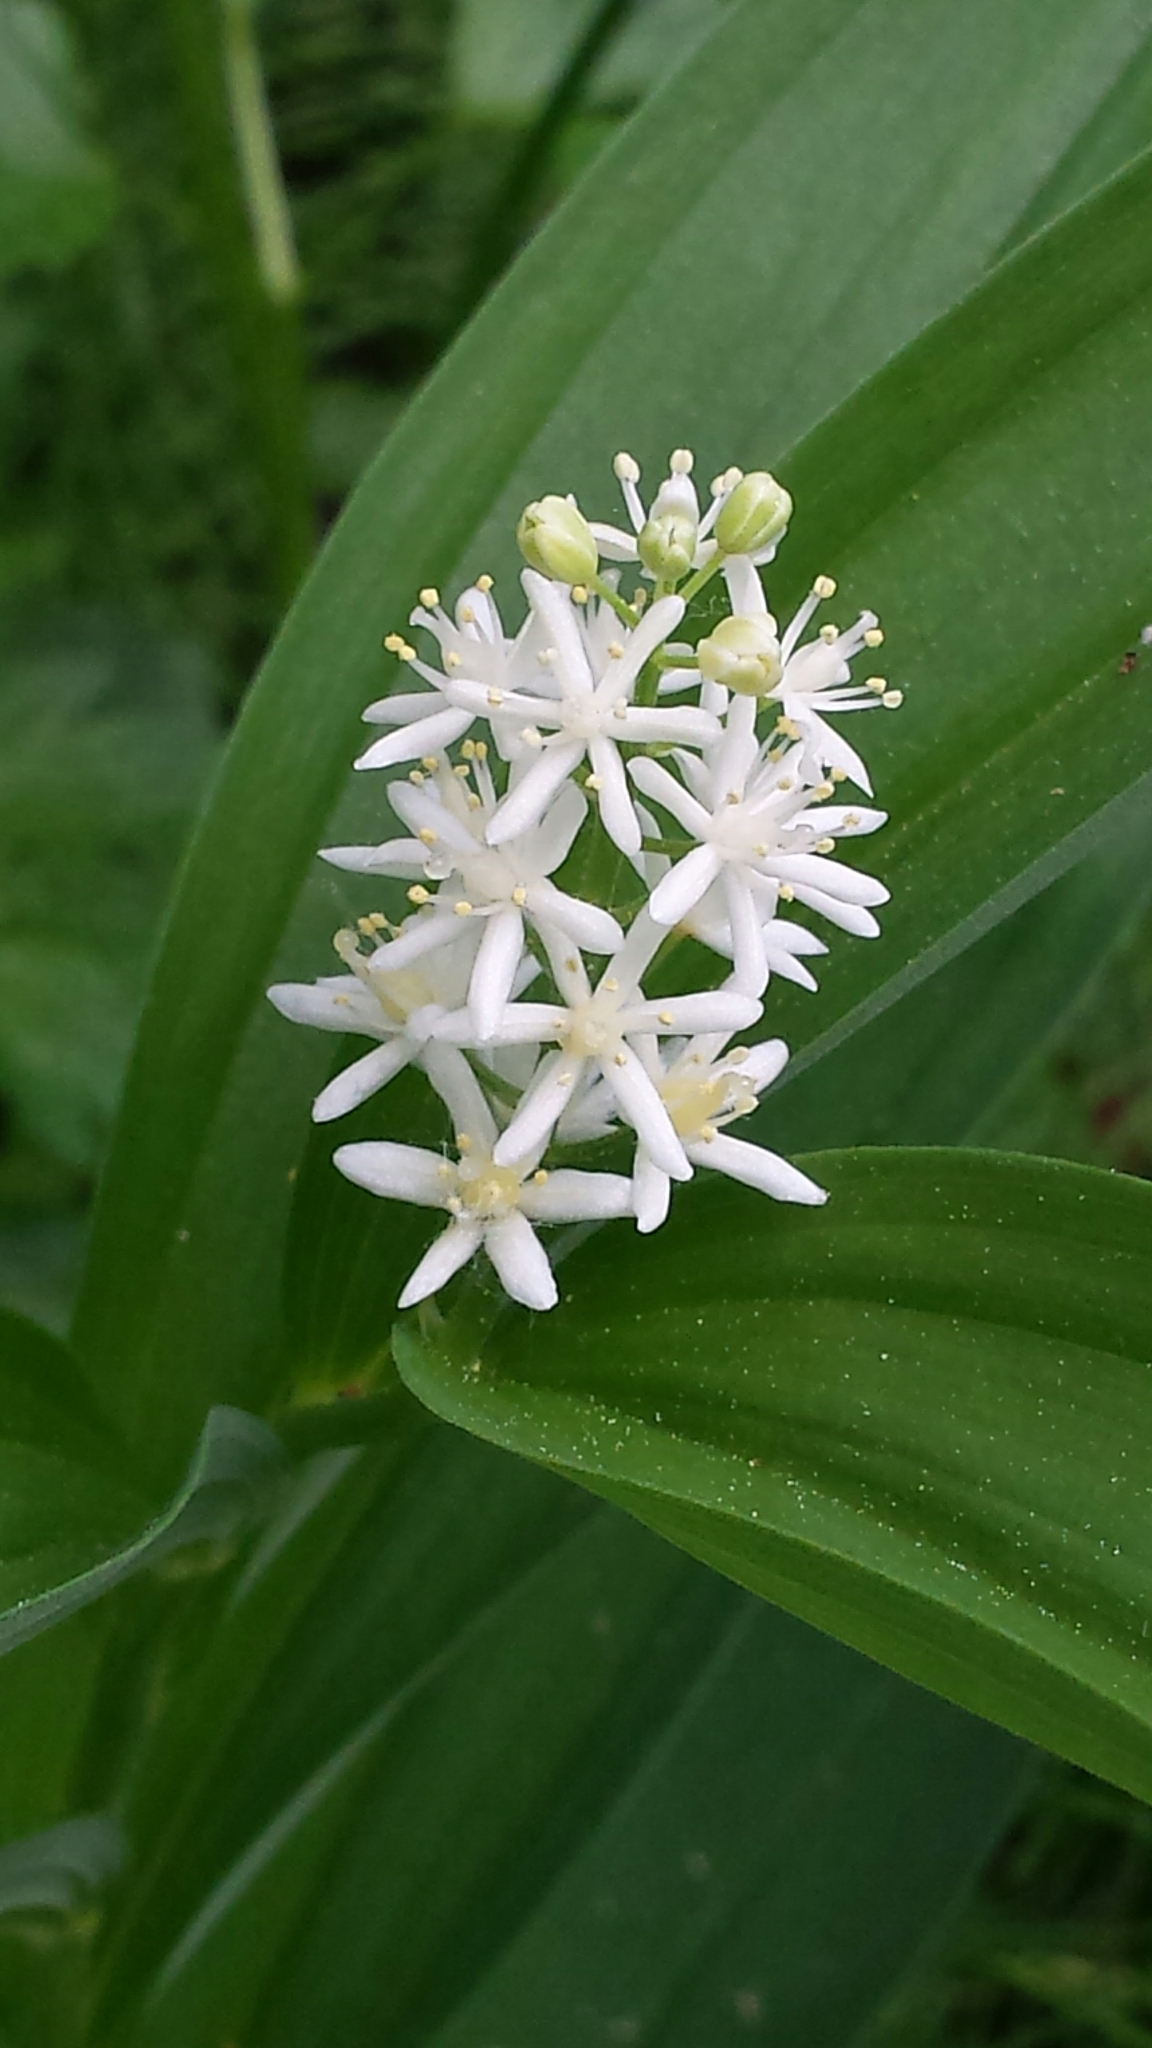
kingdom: Plantae
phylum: Tracheophyta
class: Liliopsida
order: Asparagales
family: Asparagaceae
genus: Maianthemum
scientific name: Maianthemum stellatum
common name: Little false solomon's seal
